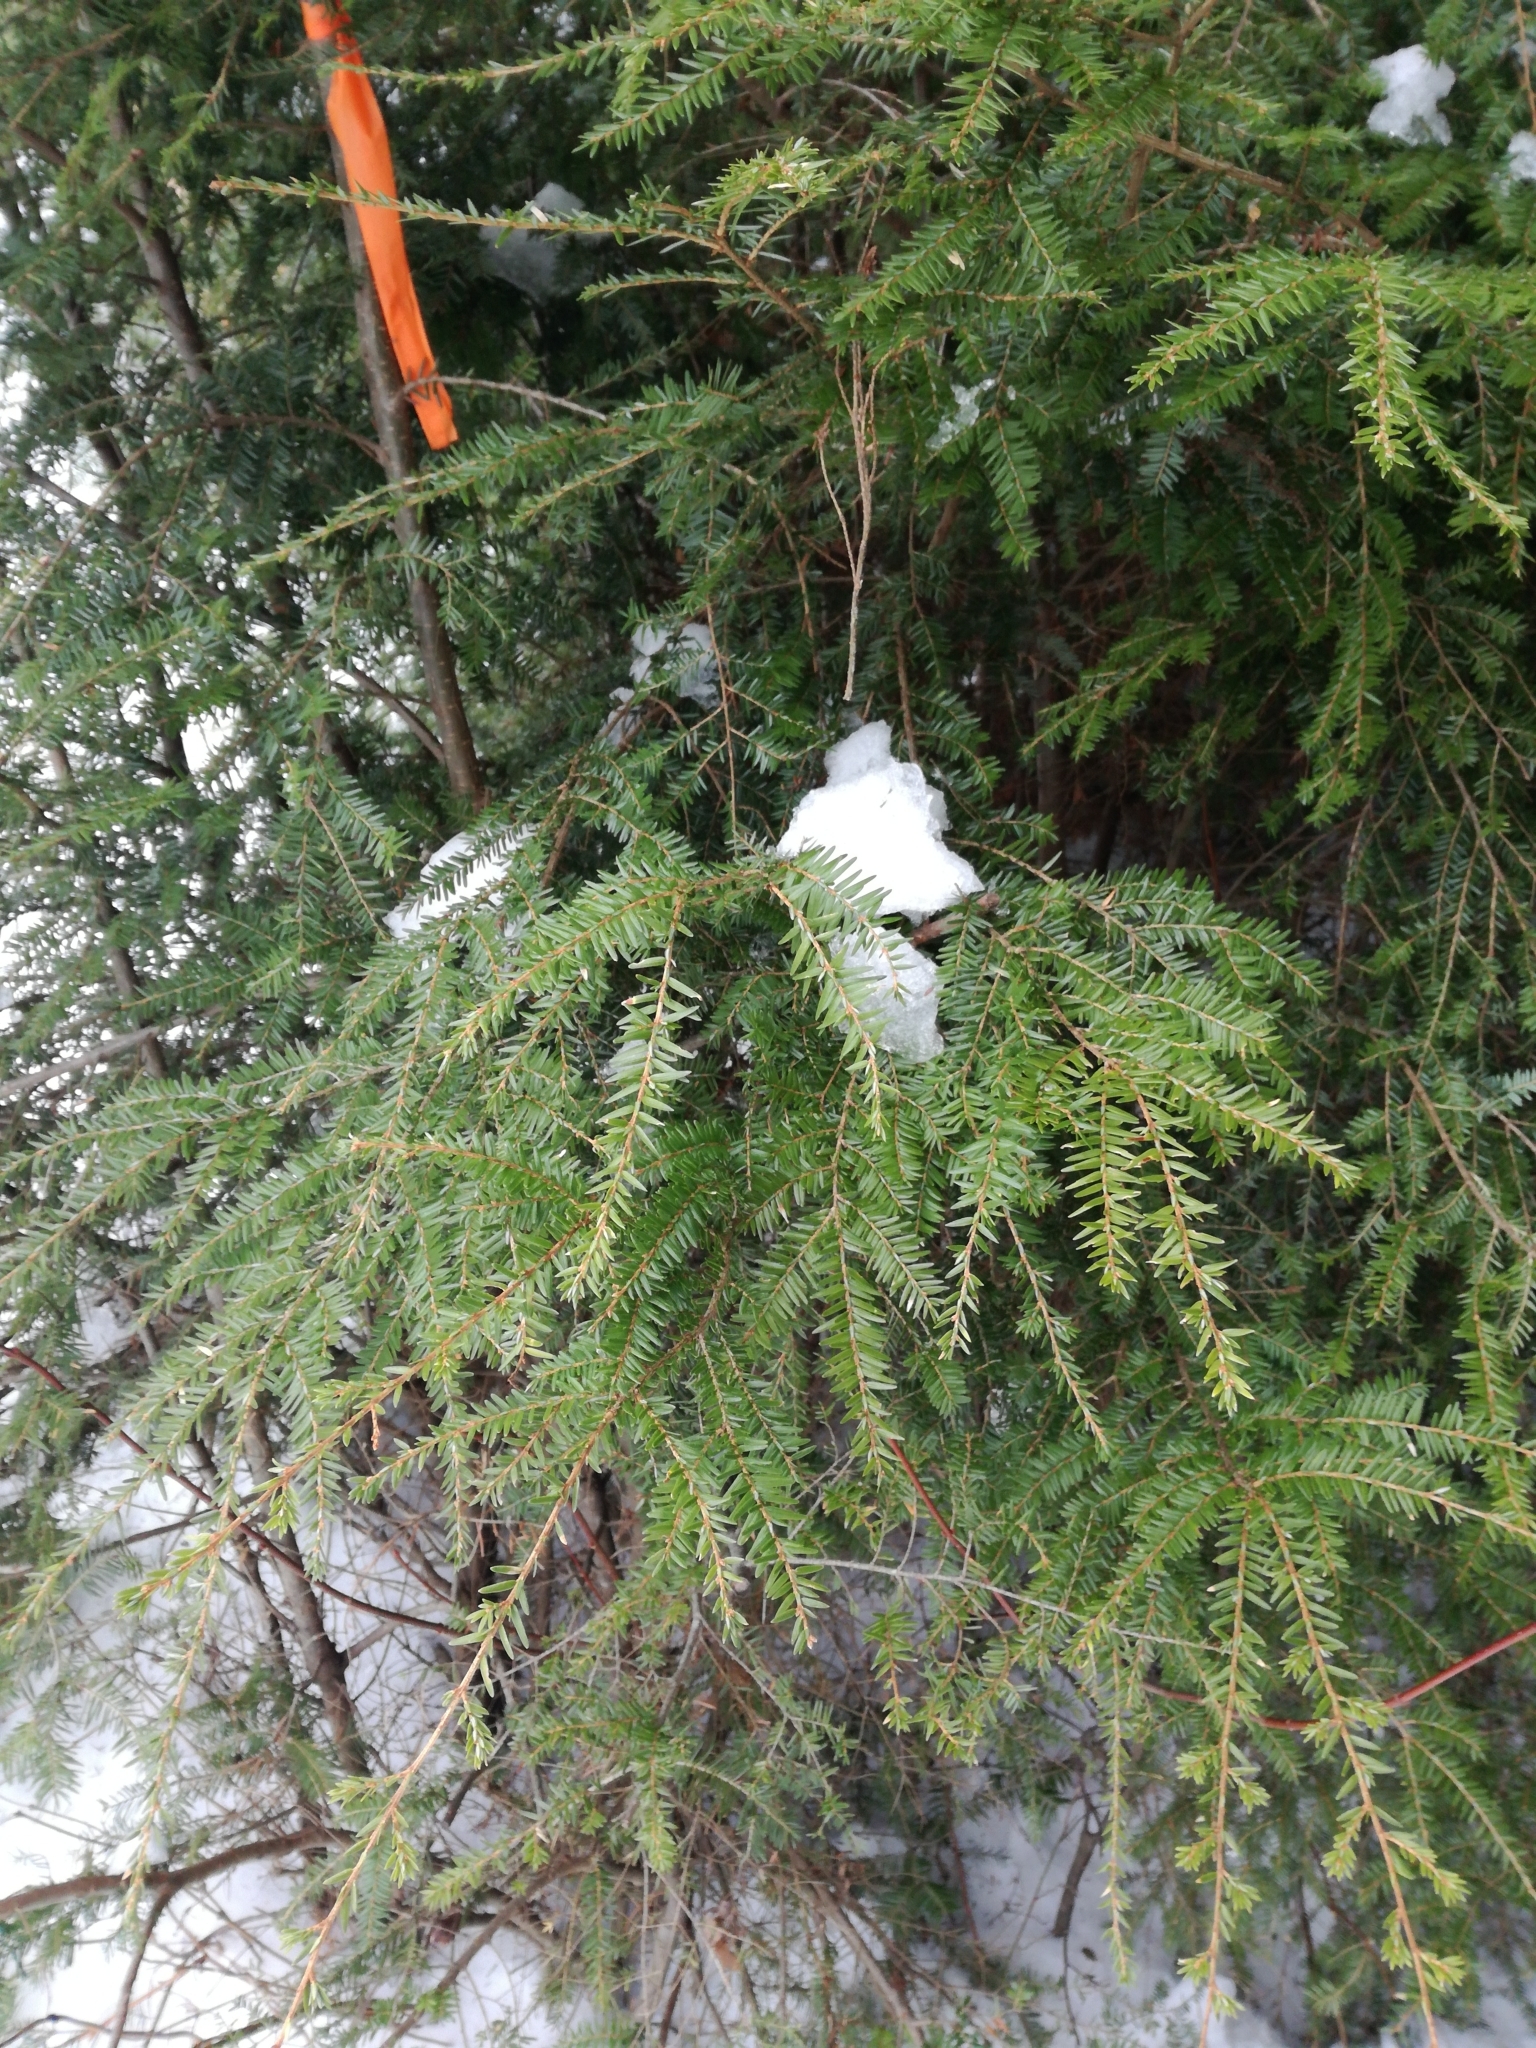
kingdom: Plantae
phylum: Tracheophyta
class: Pinopsida
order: Pinales
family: Pinaceae
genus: Tsuga
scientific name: Tsuga canadensis
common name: Eastern hemlock
